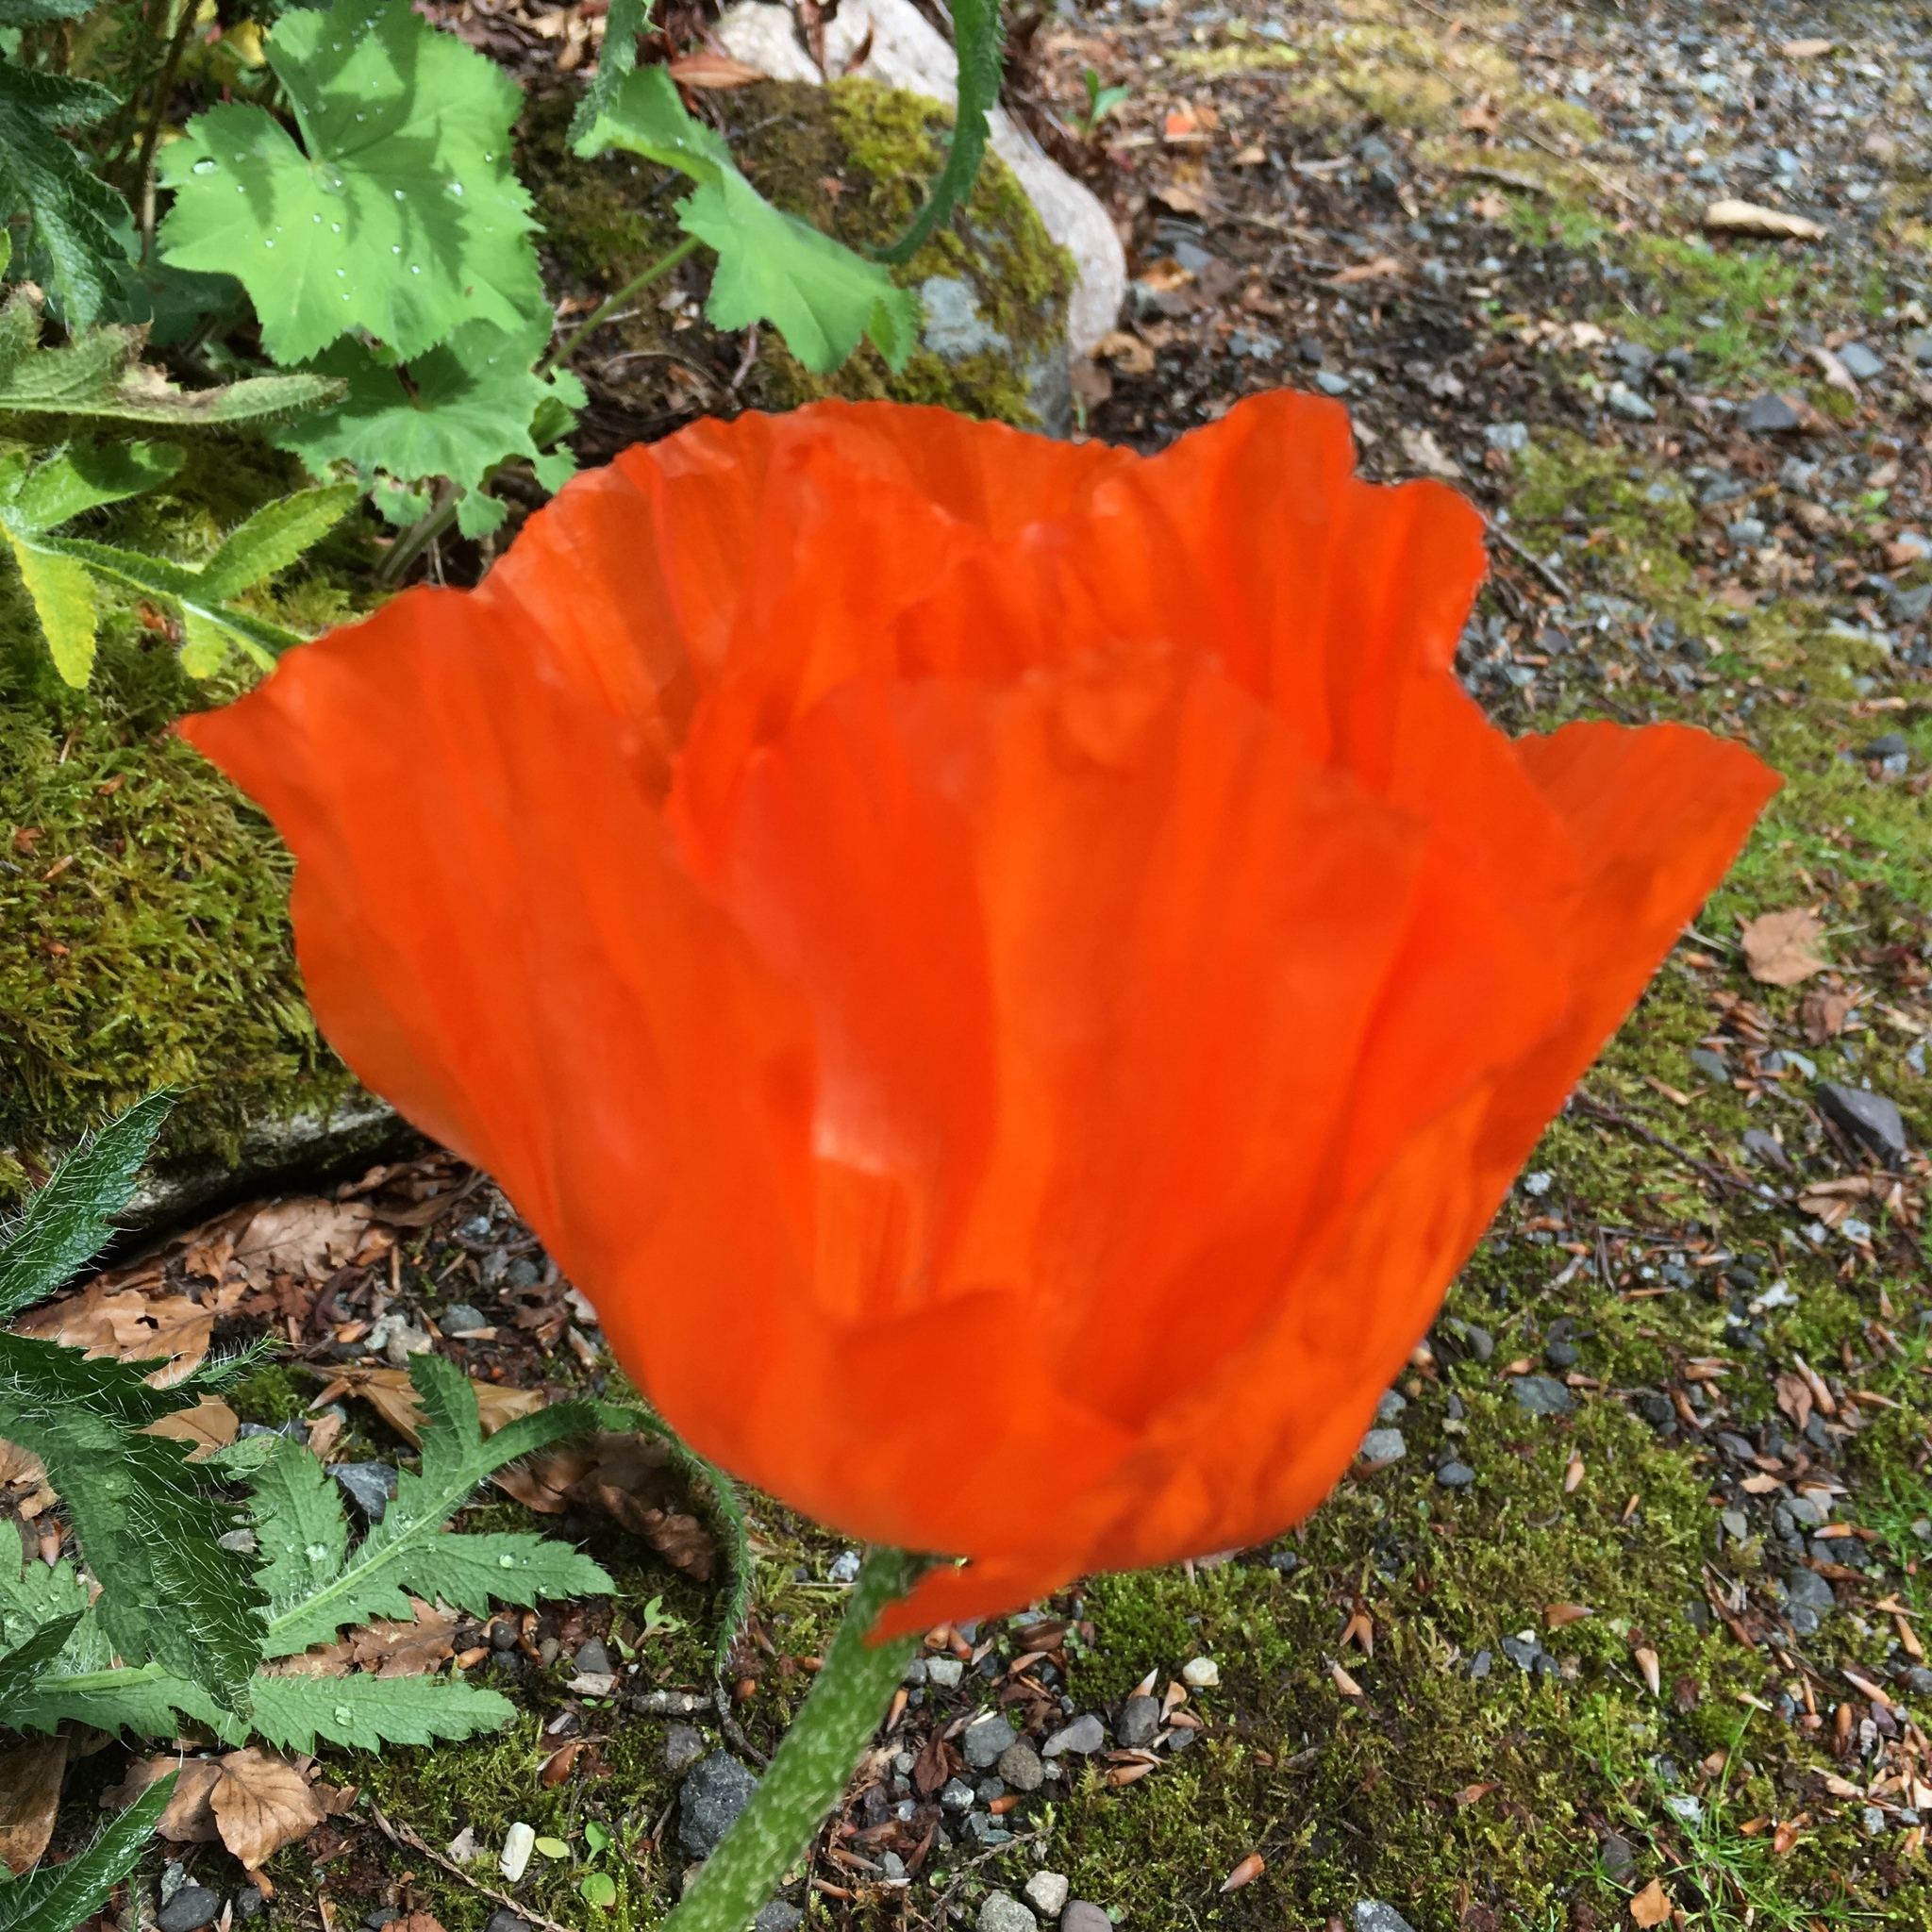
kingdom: Plantae
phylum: Tracheophyta
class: Magnoliopsida
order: Ranunculales
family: Papaveraceae
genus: Papaver
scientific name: Papaver orientale
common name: Oriental poppy
